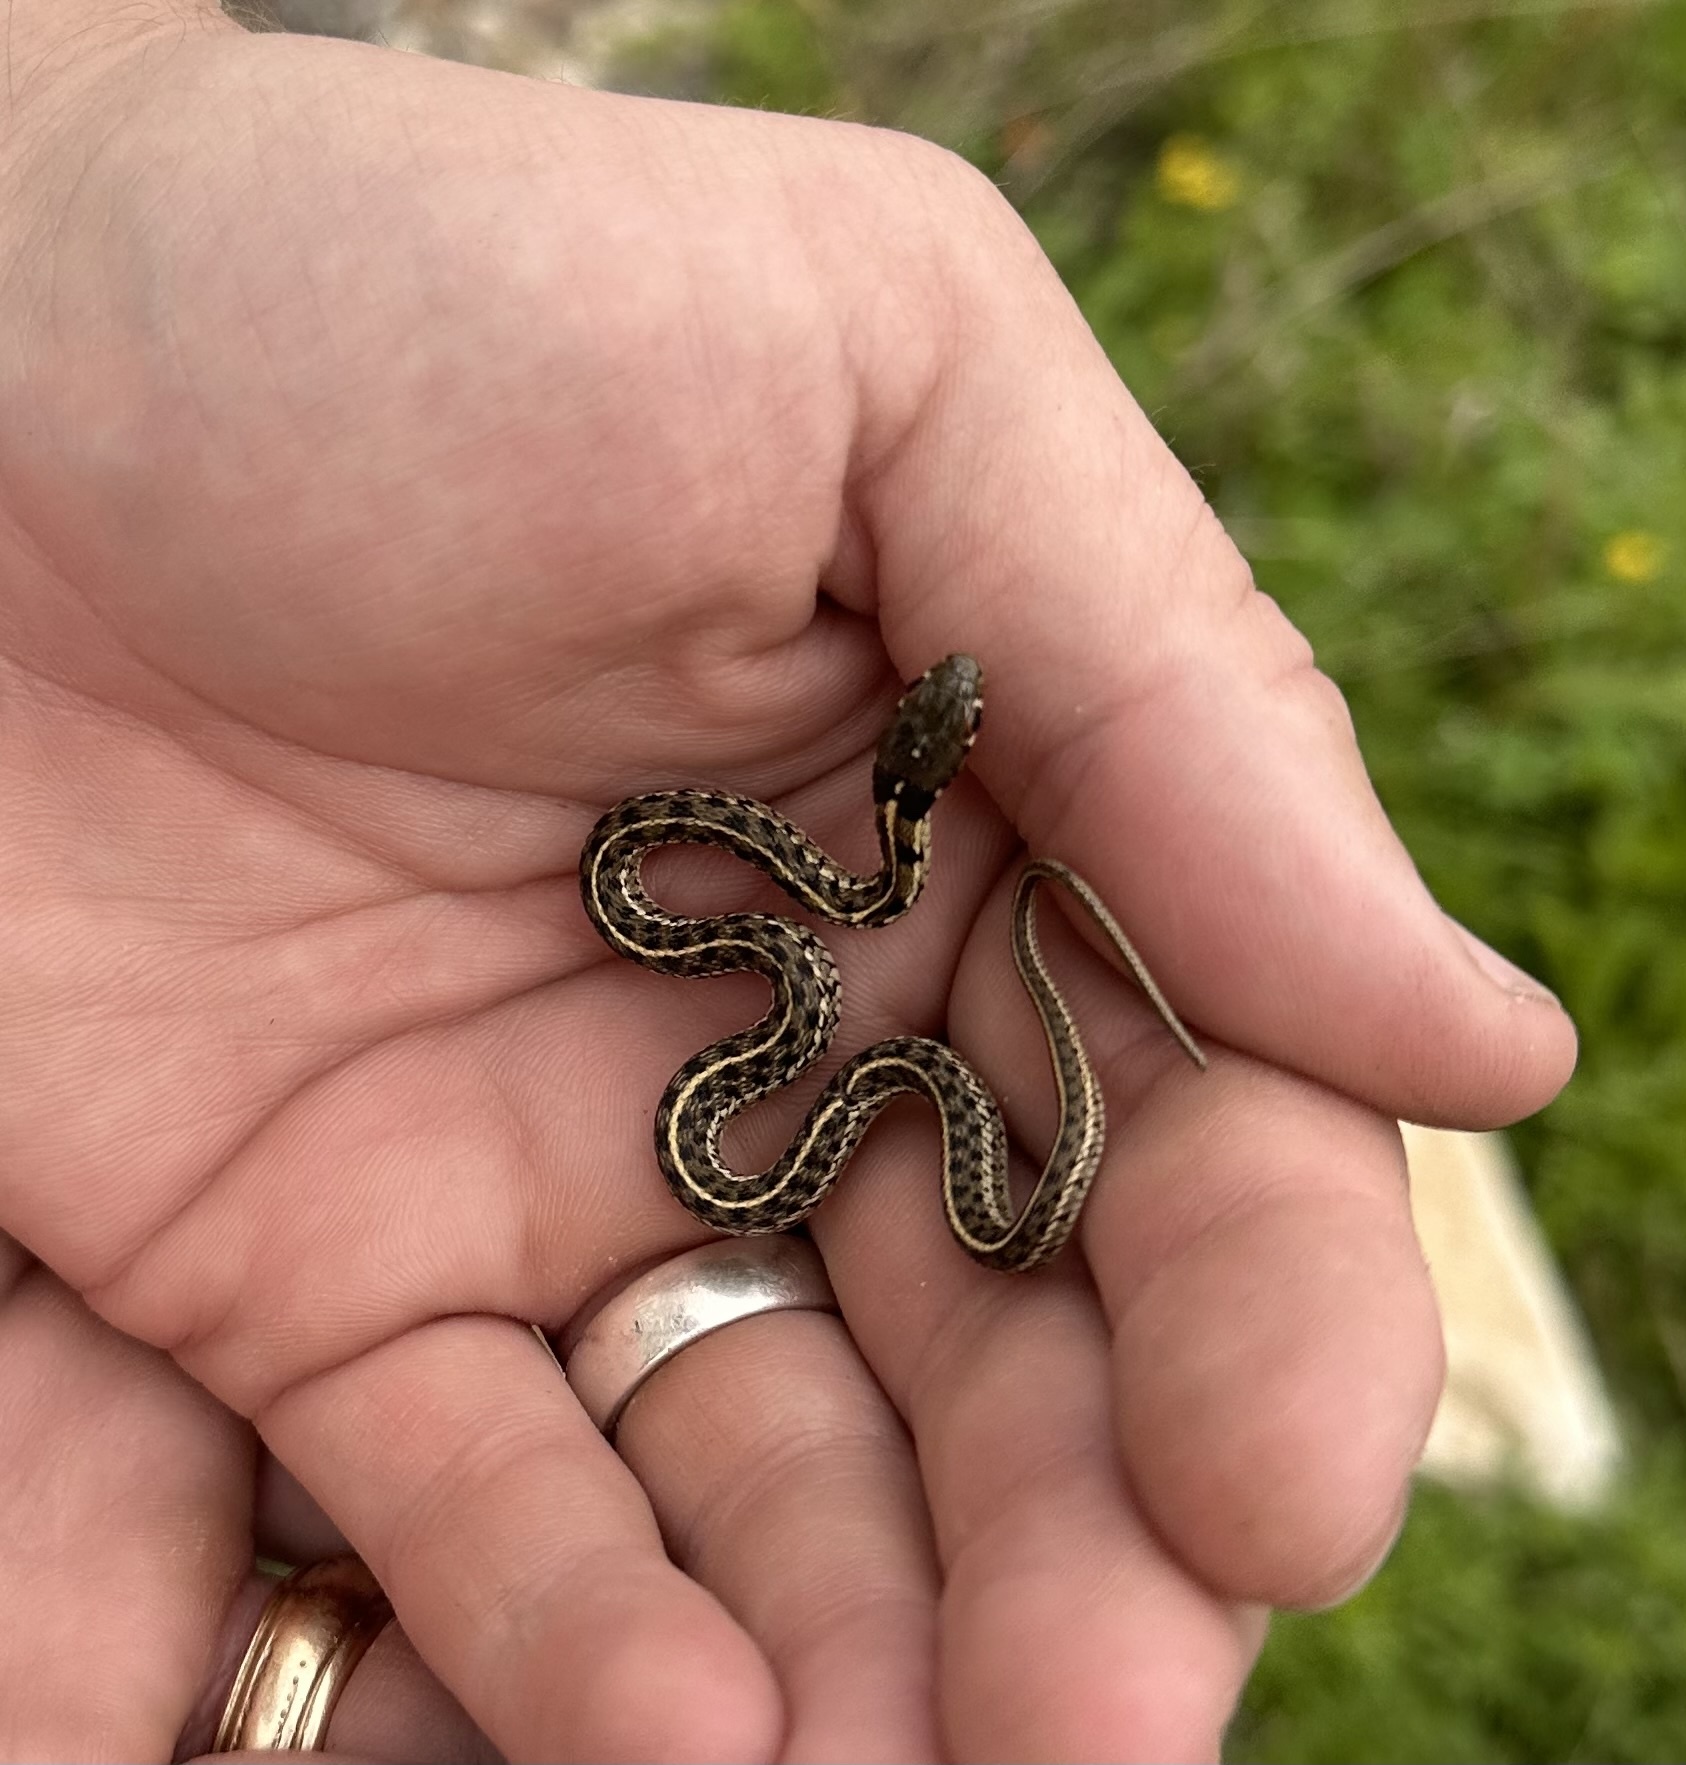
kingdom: Animalia
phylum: Chordata
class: Squamata
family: Colubridae
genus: Thamnophis
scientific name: Thamnophis marcianus
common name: Checkered garter snake
